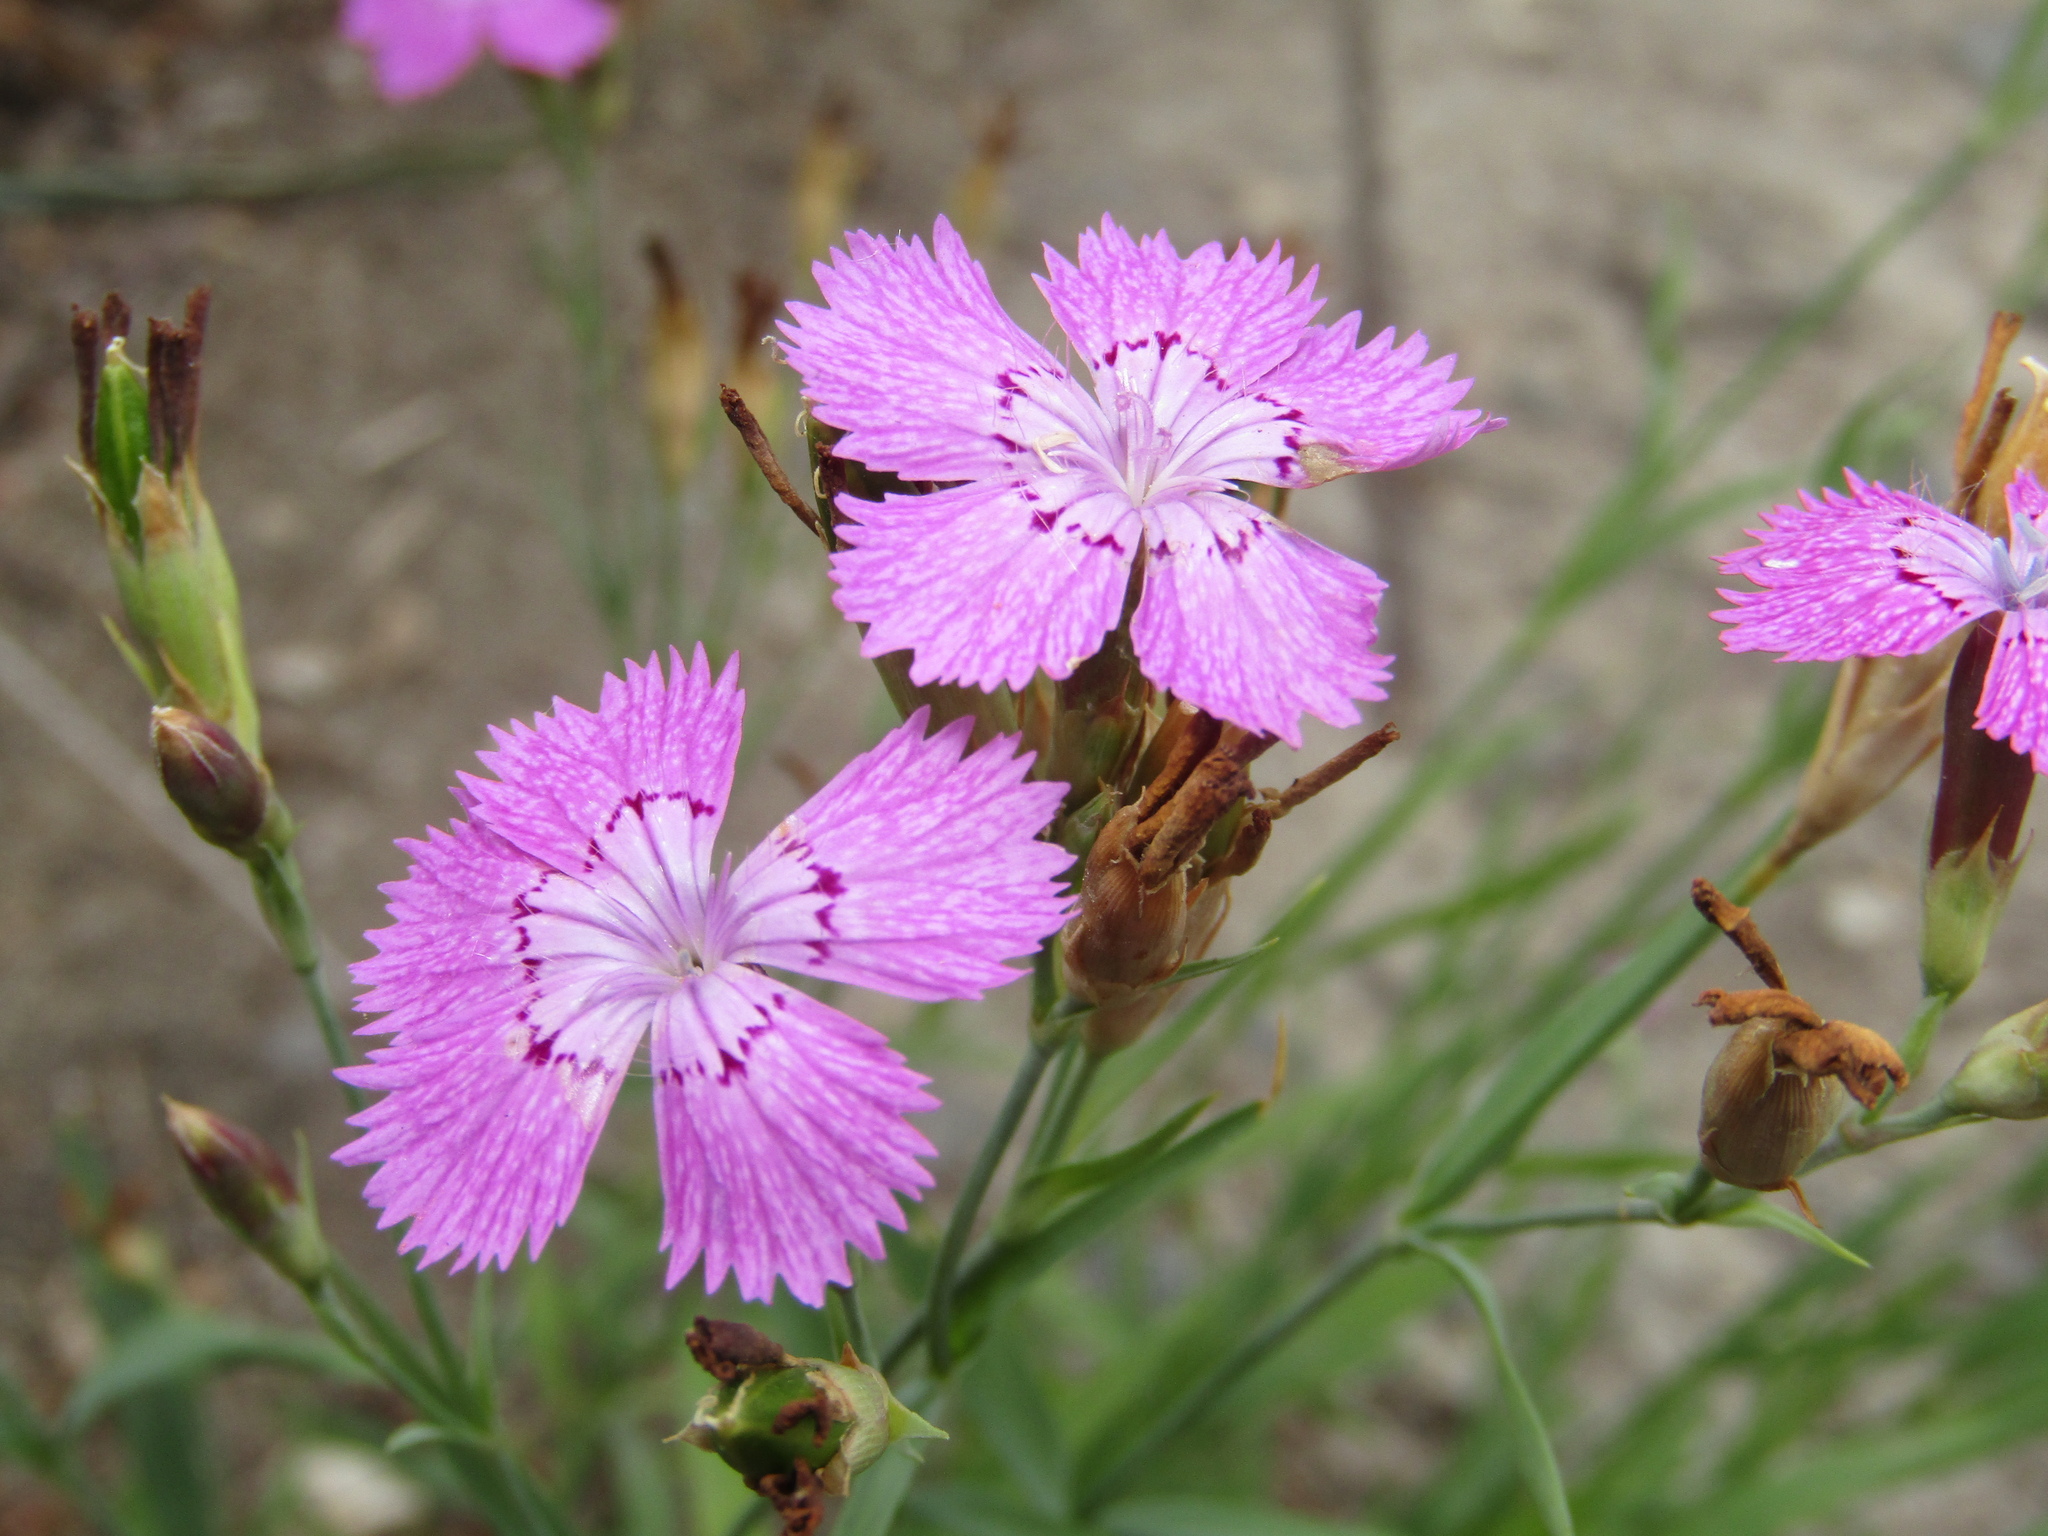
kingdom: Plantae
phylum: Tracheophyta
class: Magnoliopsida
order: Caryophyllales
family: Caryophyllaceae
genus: Dianthus
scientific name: Dianthus chinensis
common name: Rainbow pink
